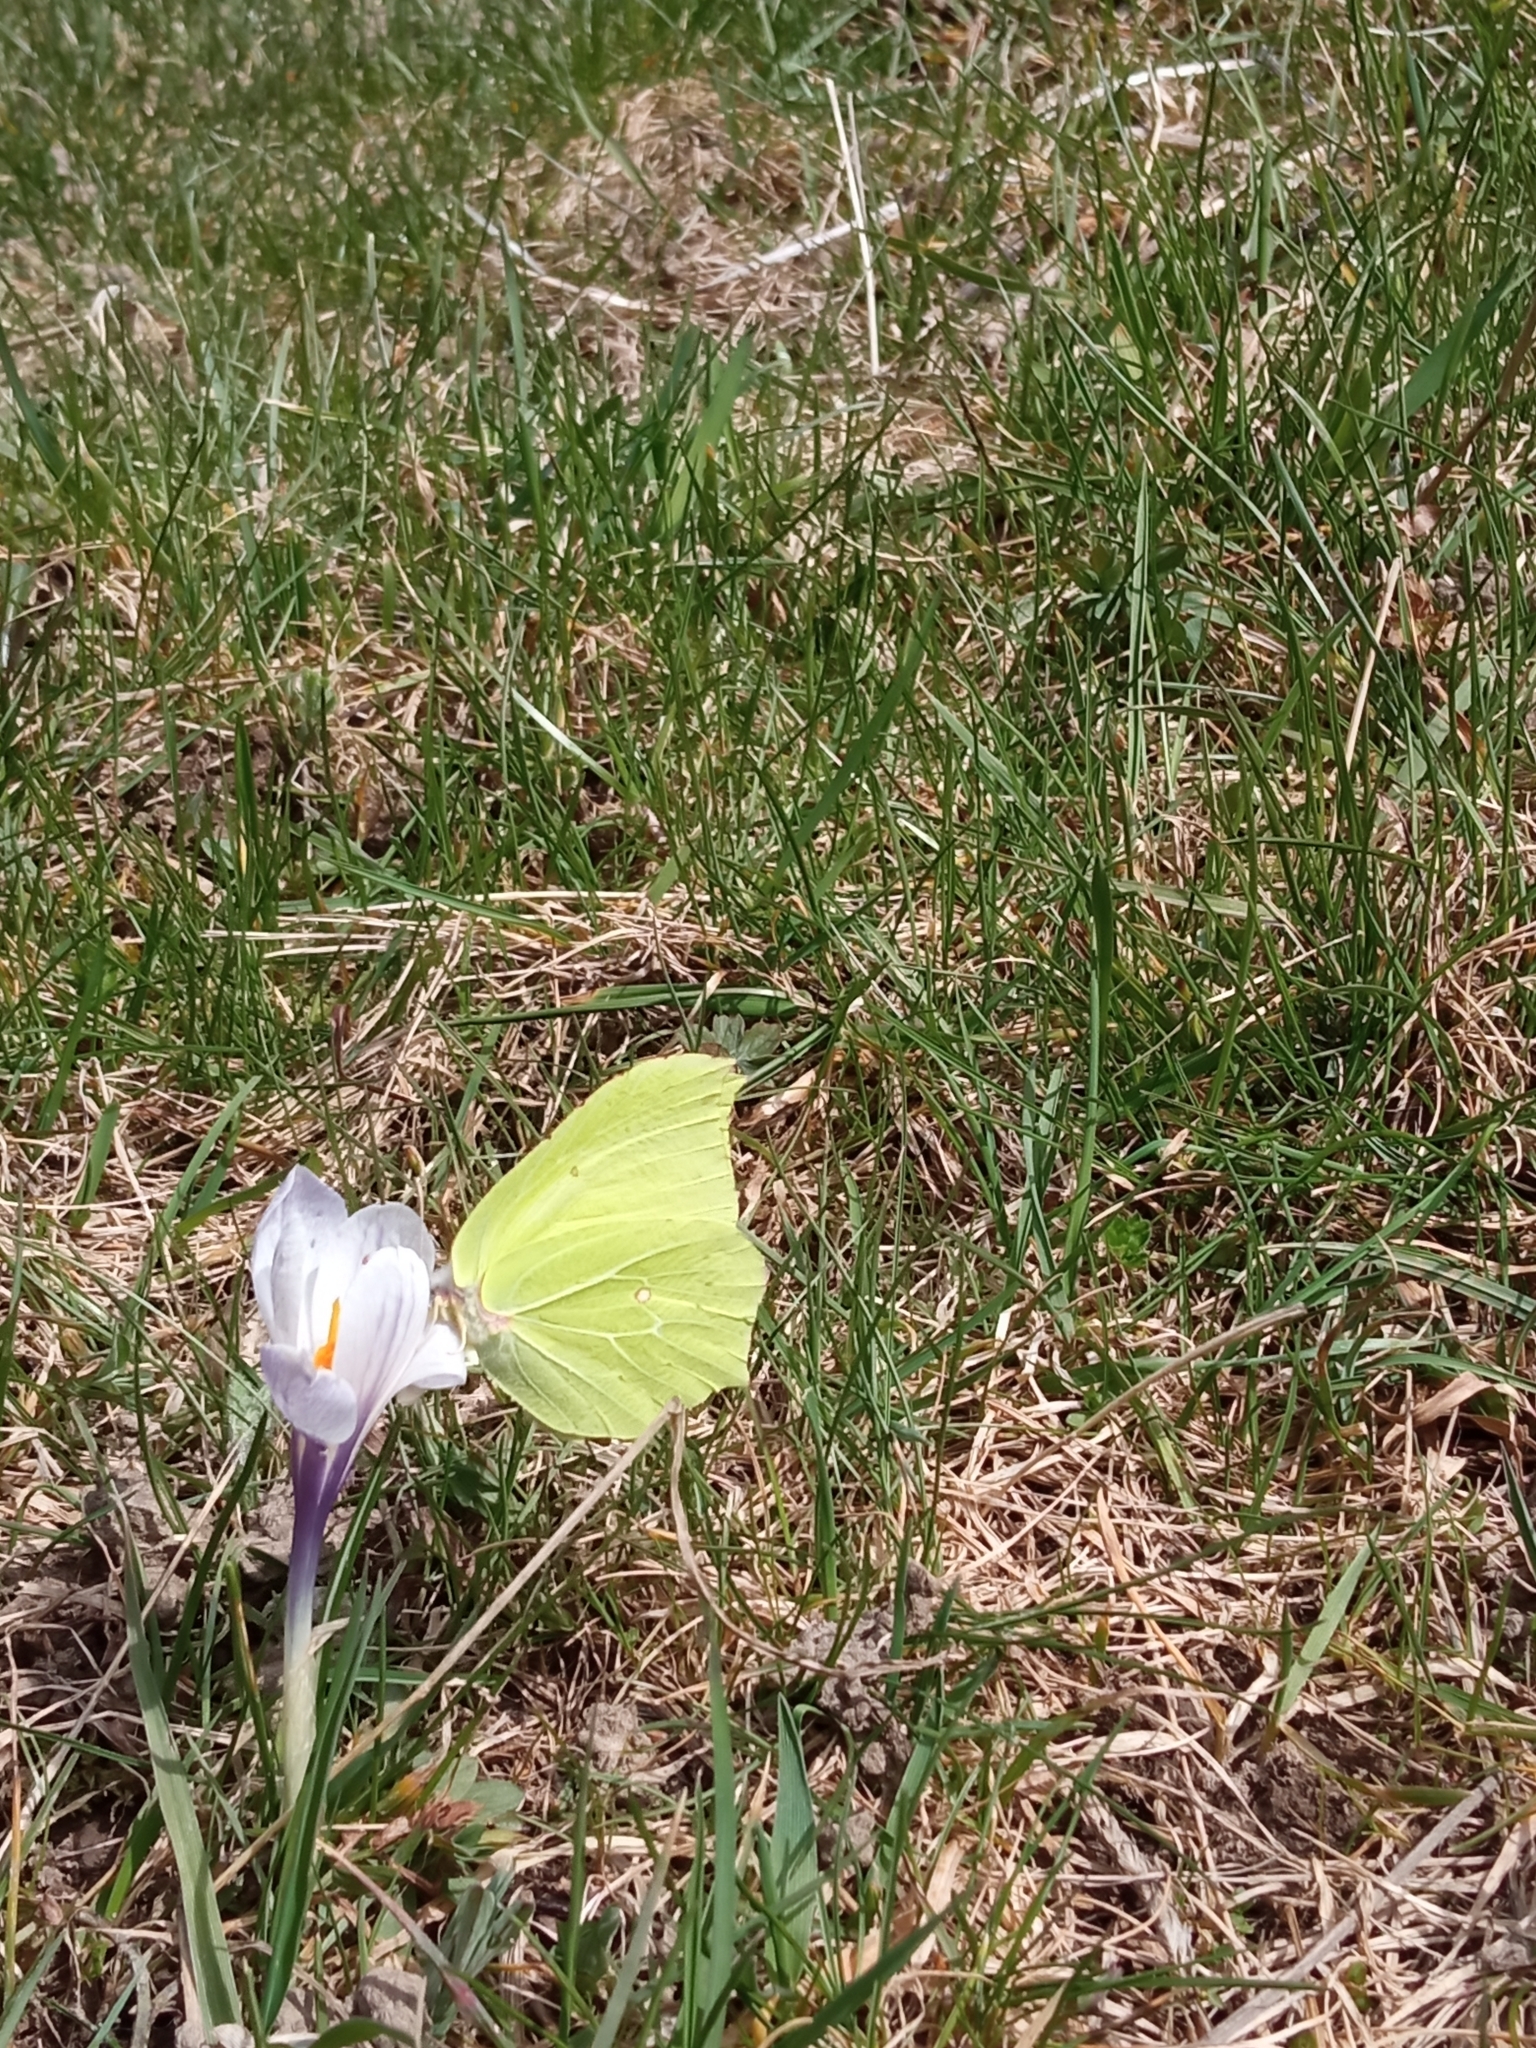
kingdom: Animalia
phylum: Arthropoda
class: Insecta
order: Lepidoptera
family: Pieridae
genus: Gonepteryx
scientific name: Gonepteryx rhamni
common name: Brimstone
